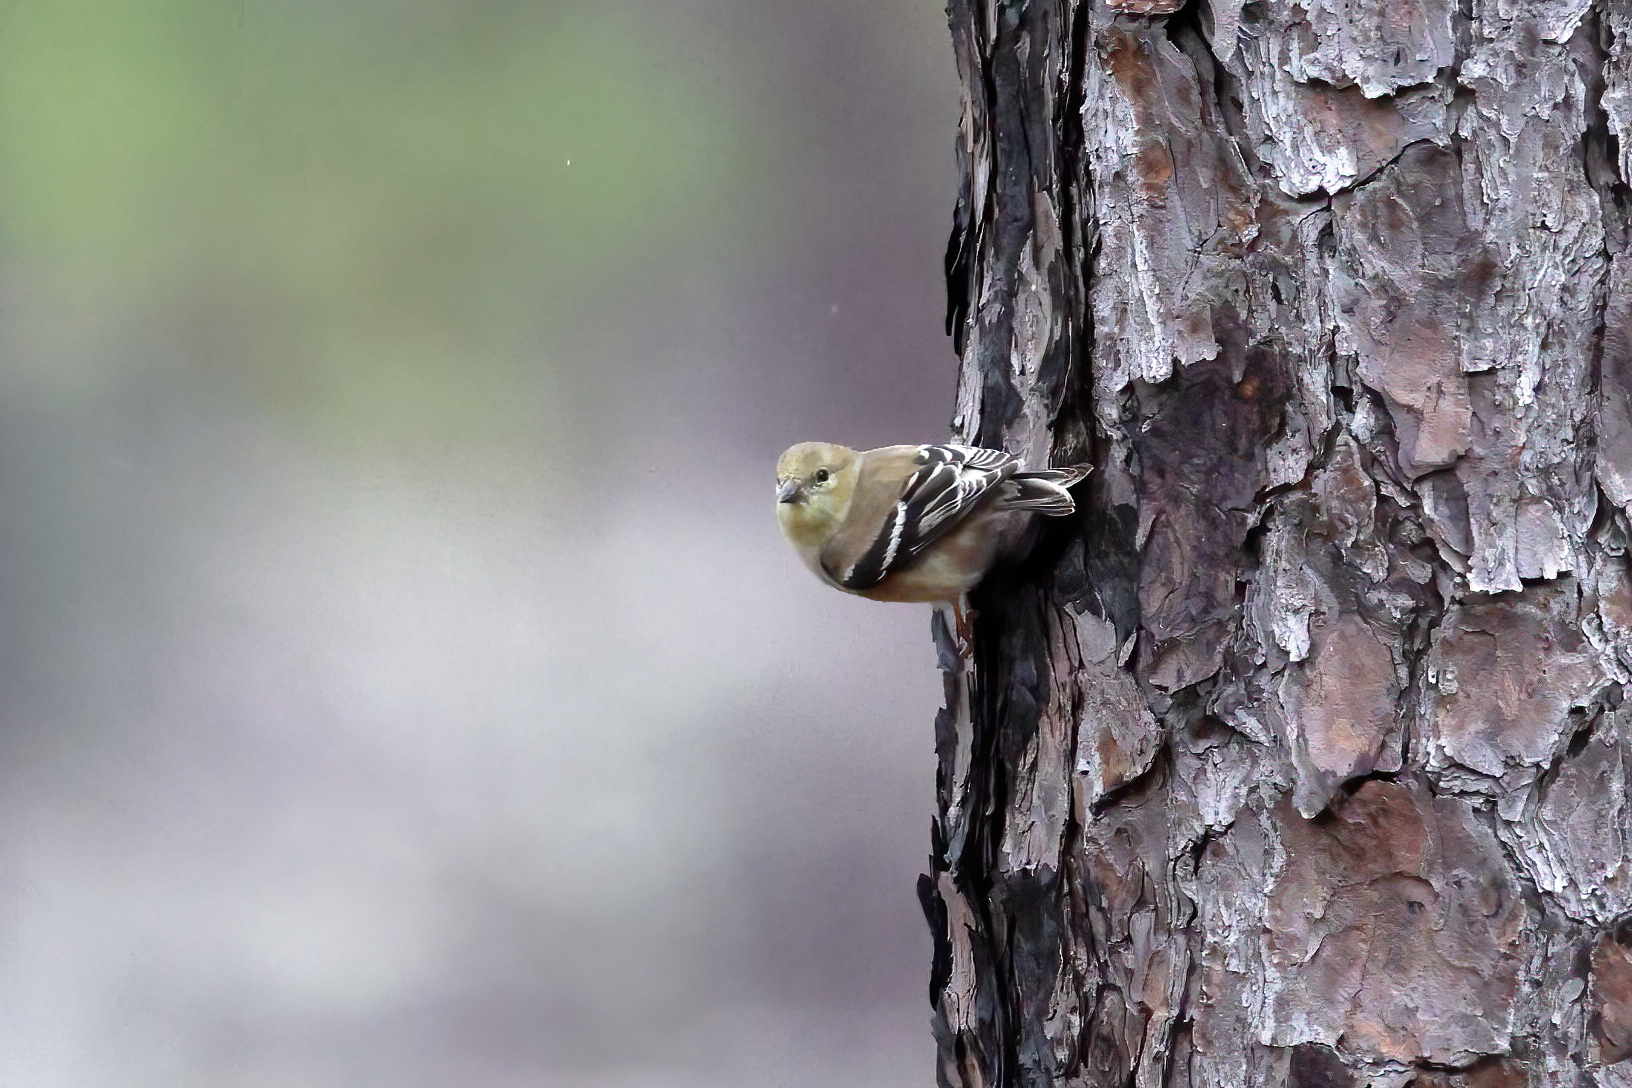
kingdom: Animalia
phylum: Chordata
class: Aves
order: Passeriformes
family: Fringillidae
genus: Spinus
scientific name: Spinus tristis
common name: American goldfinch
